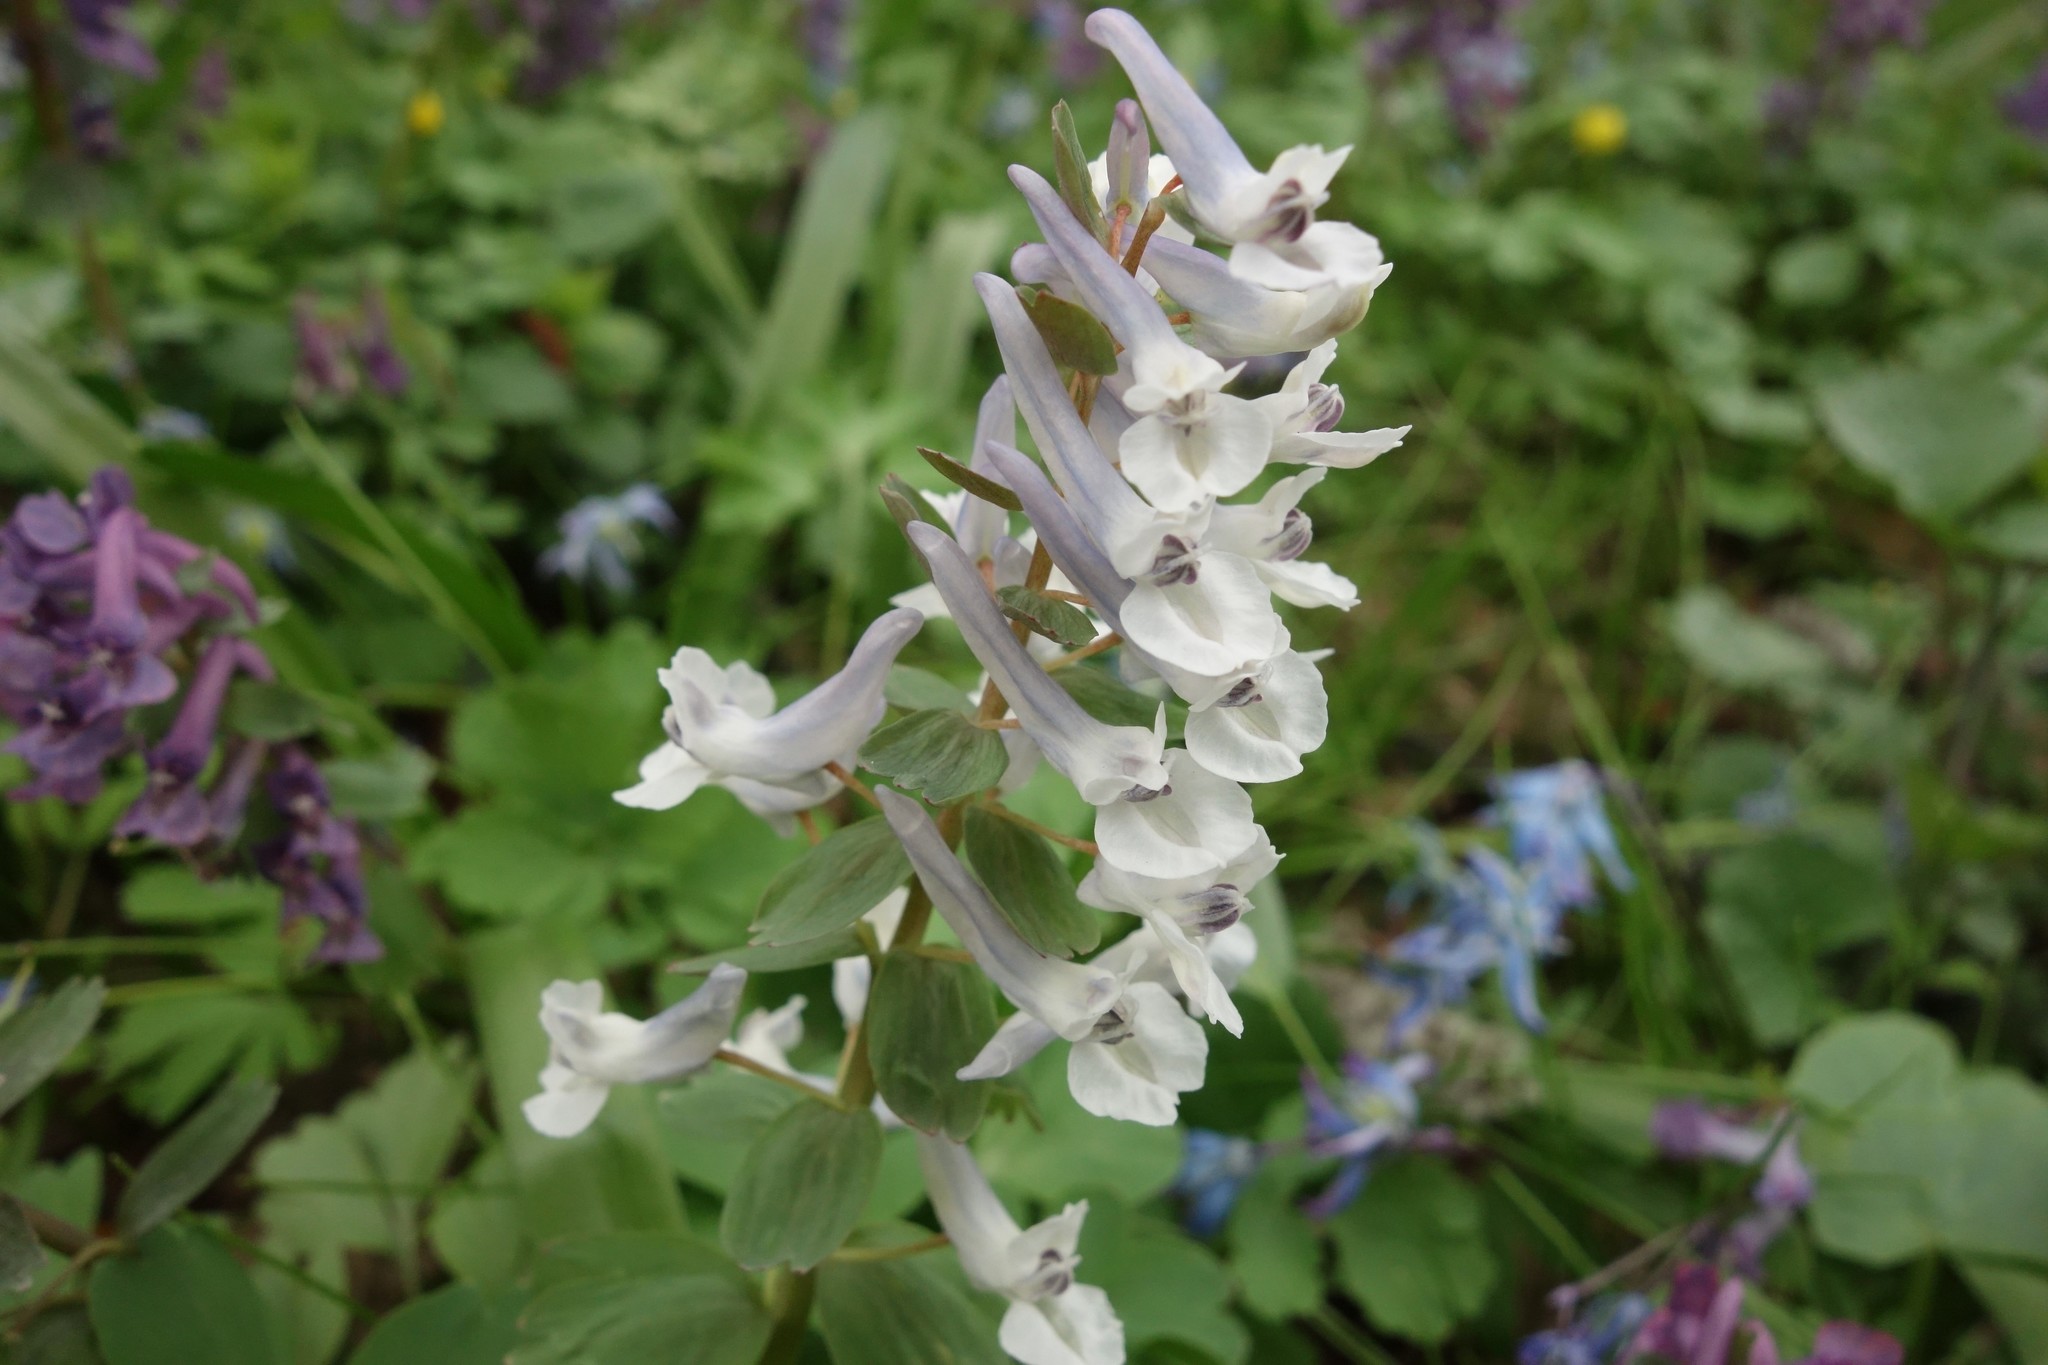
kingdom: Plantae
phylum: Tracheophyta
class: Magnoliopsida
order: Ranunculales
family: Papaveraceae
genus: Corydalis
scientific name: Corydalis solida
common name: Bird-in-a-bush
